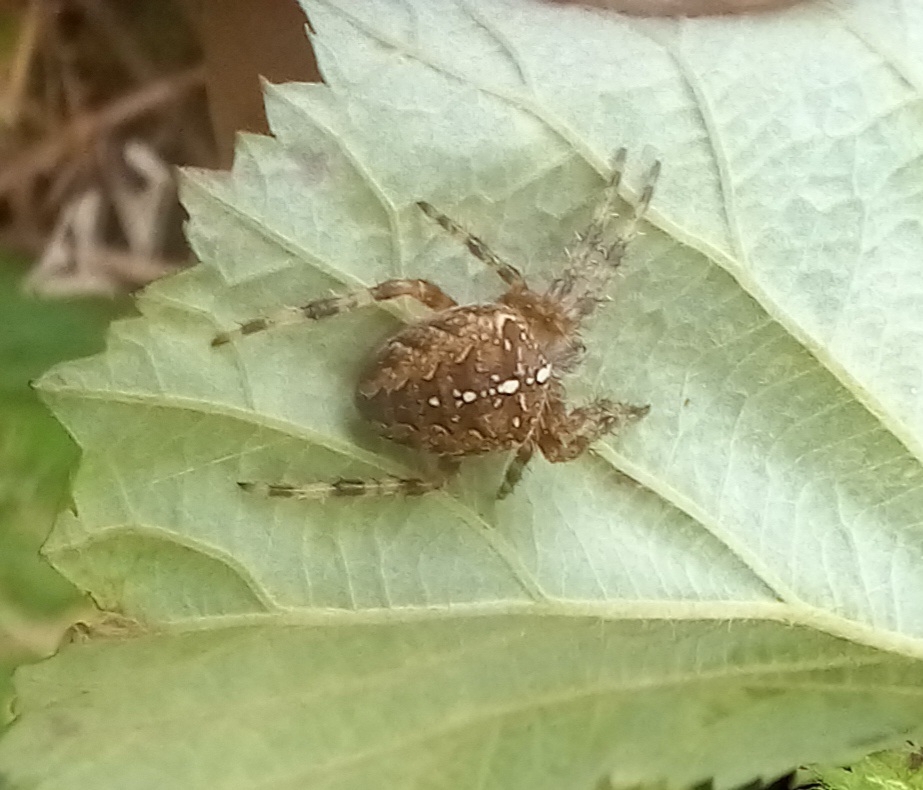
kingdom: Animalia
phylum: Arthropoda
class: Arachnida
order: Araneae
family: Araneidae
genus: Araneus
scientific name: Araneus diadematus
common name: Cross orbweaver
